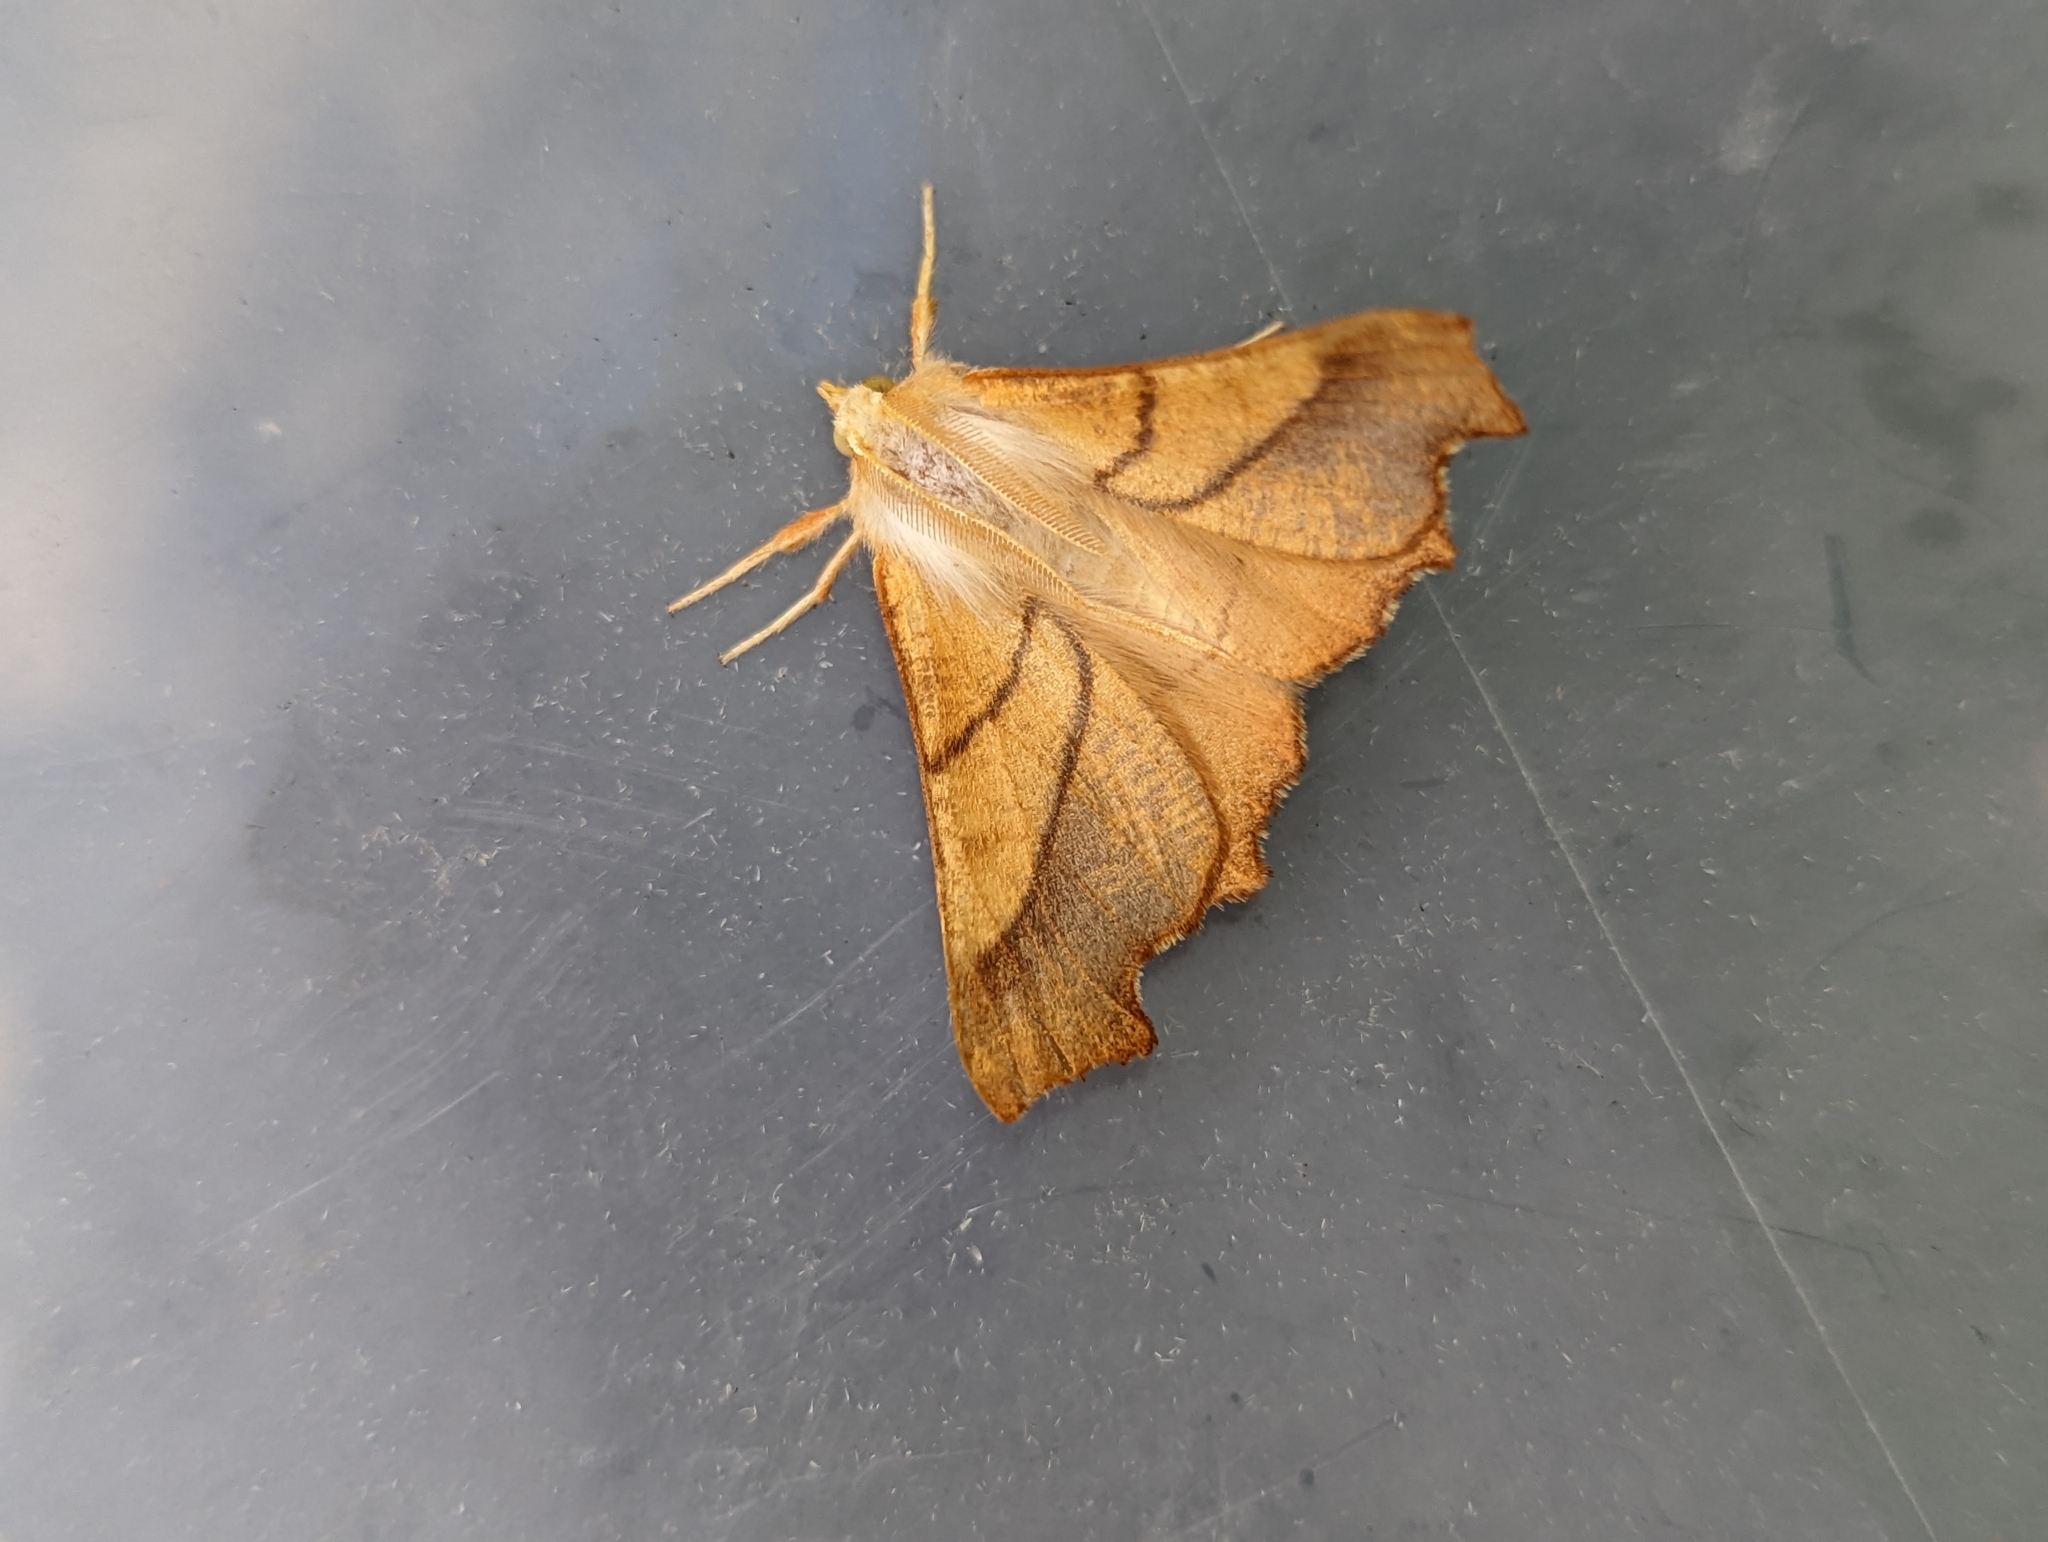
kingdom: Animalia
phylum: Arthropoda
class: Insecta
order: Lepidoptera
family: Geometridae
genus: Ennomos
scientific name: Ennomos fuscantaria
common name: Dusky thorn
